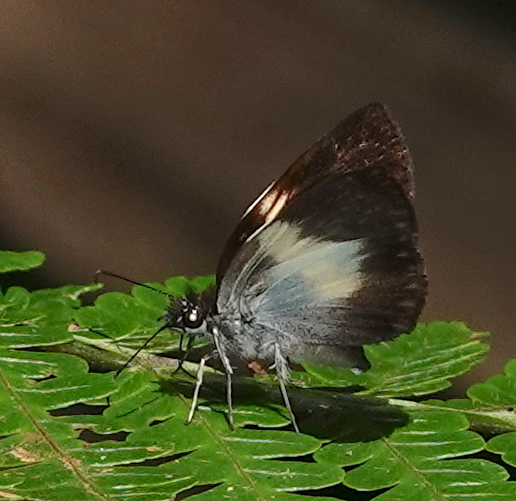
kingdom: Animalia
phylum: Arthropoda
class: Insecta
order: Lepidoptera
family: Hesperiidae
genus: Potamanaxas
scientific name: Potamanaxas thestia
